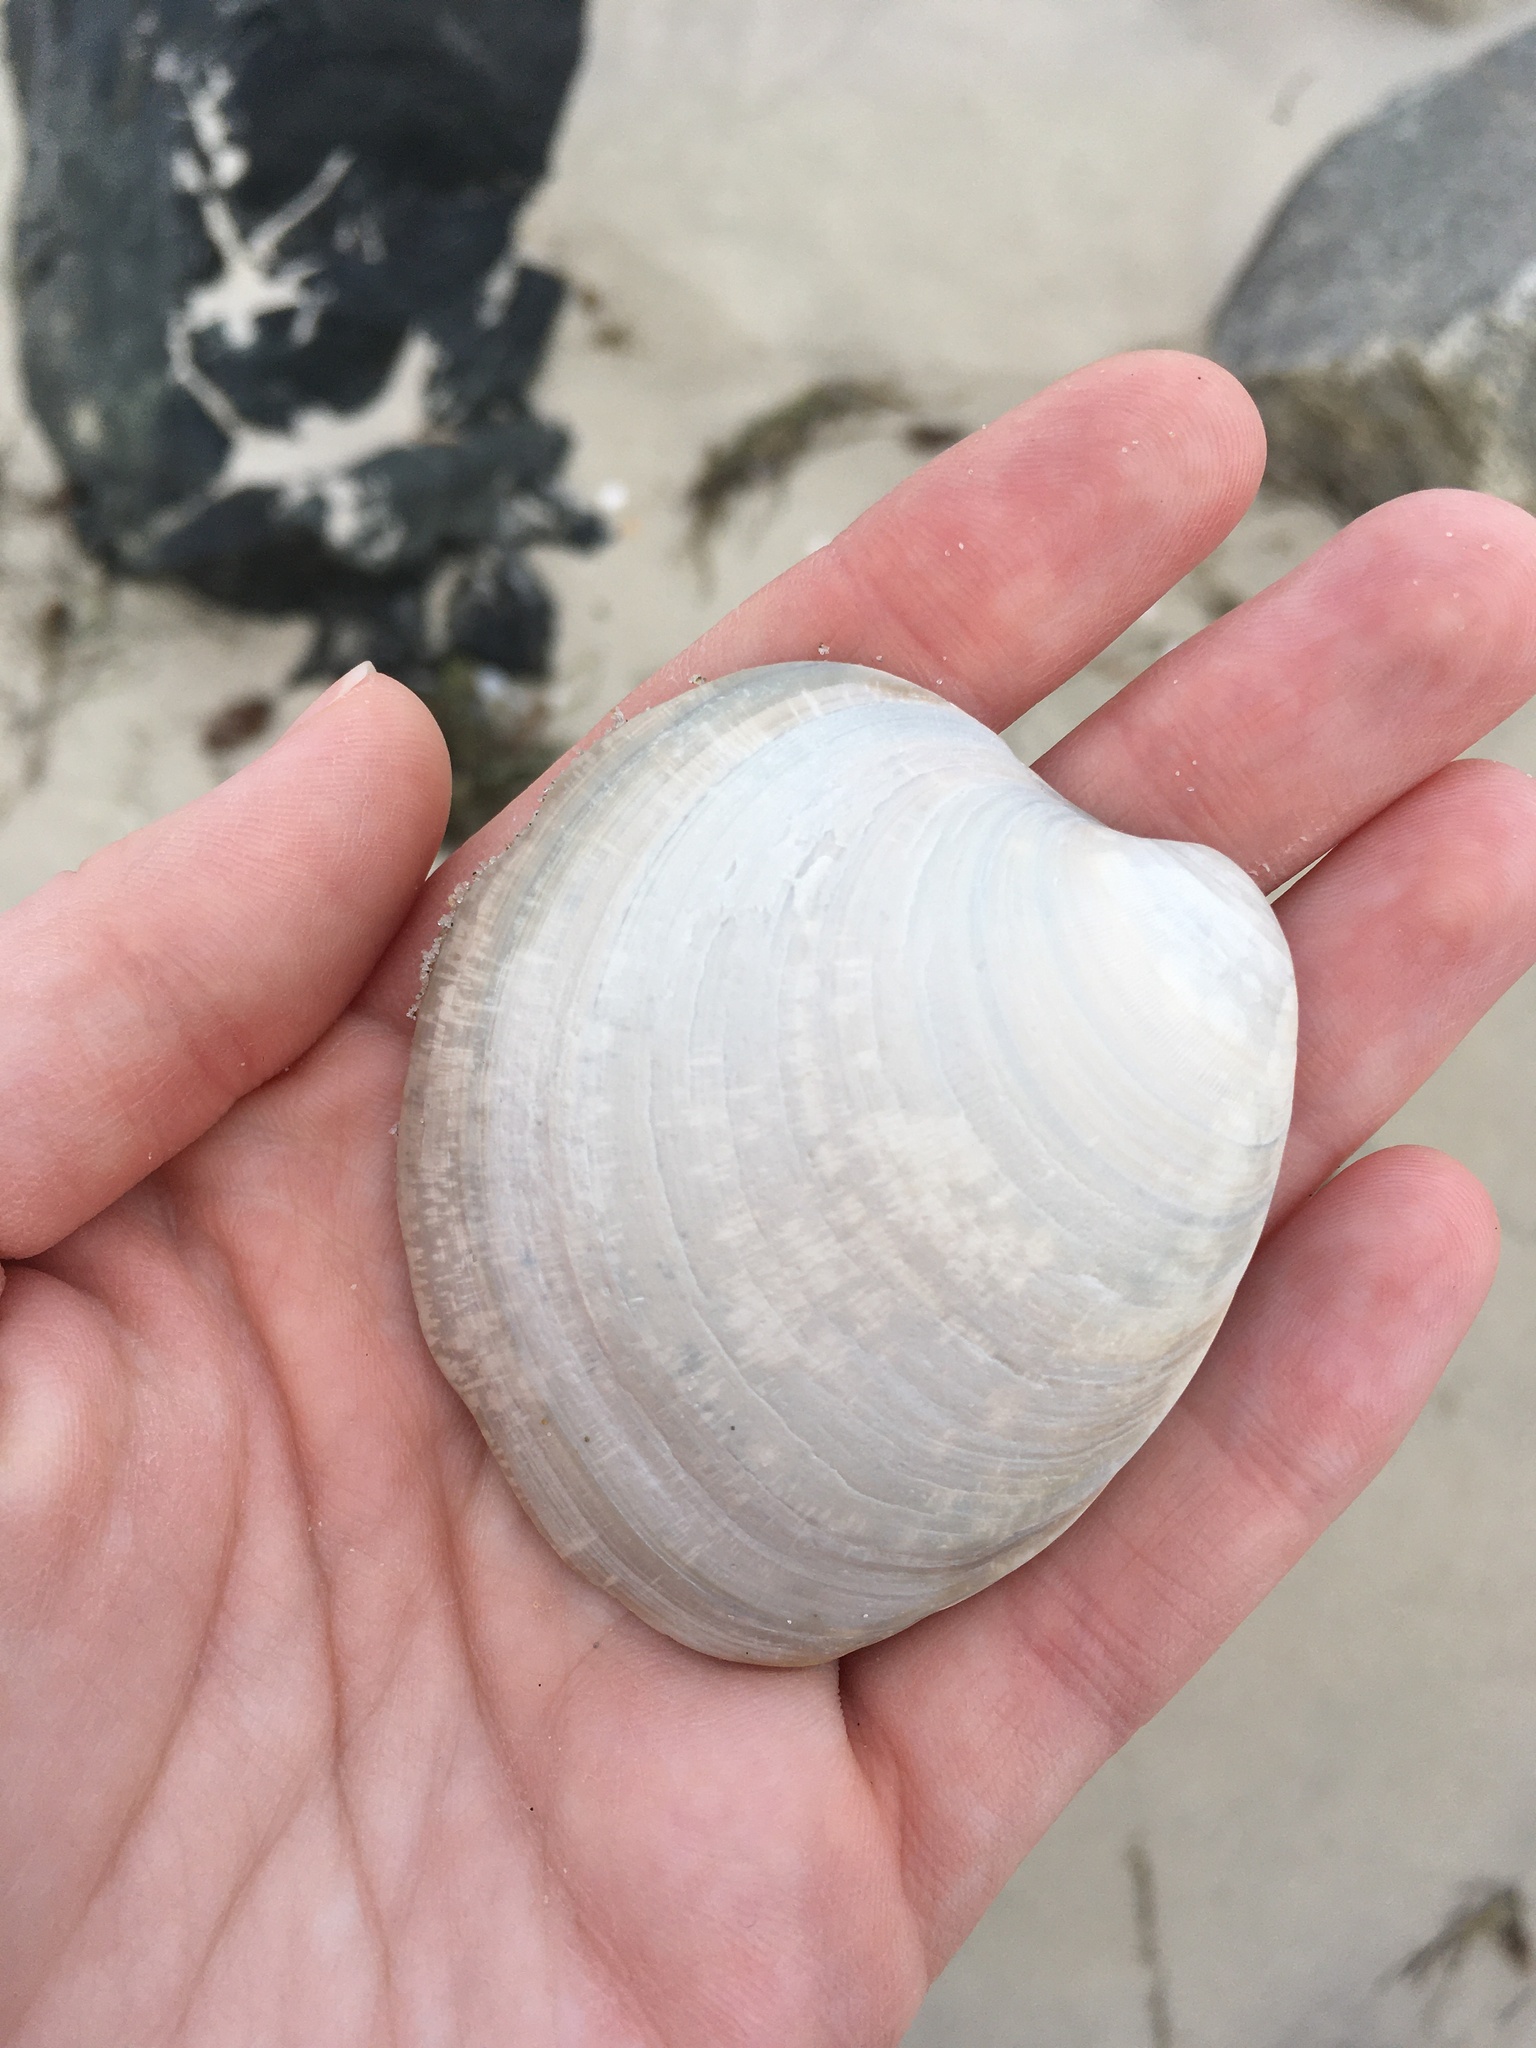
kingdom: Animalia
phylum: Mollusca
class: Bivalvia
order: Venerida
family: Veneridae
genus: Mercenaria
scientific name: Mercenaria mercenaria
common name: American hard-shelled clam
